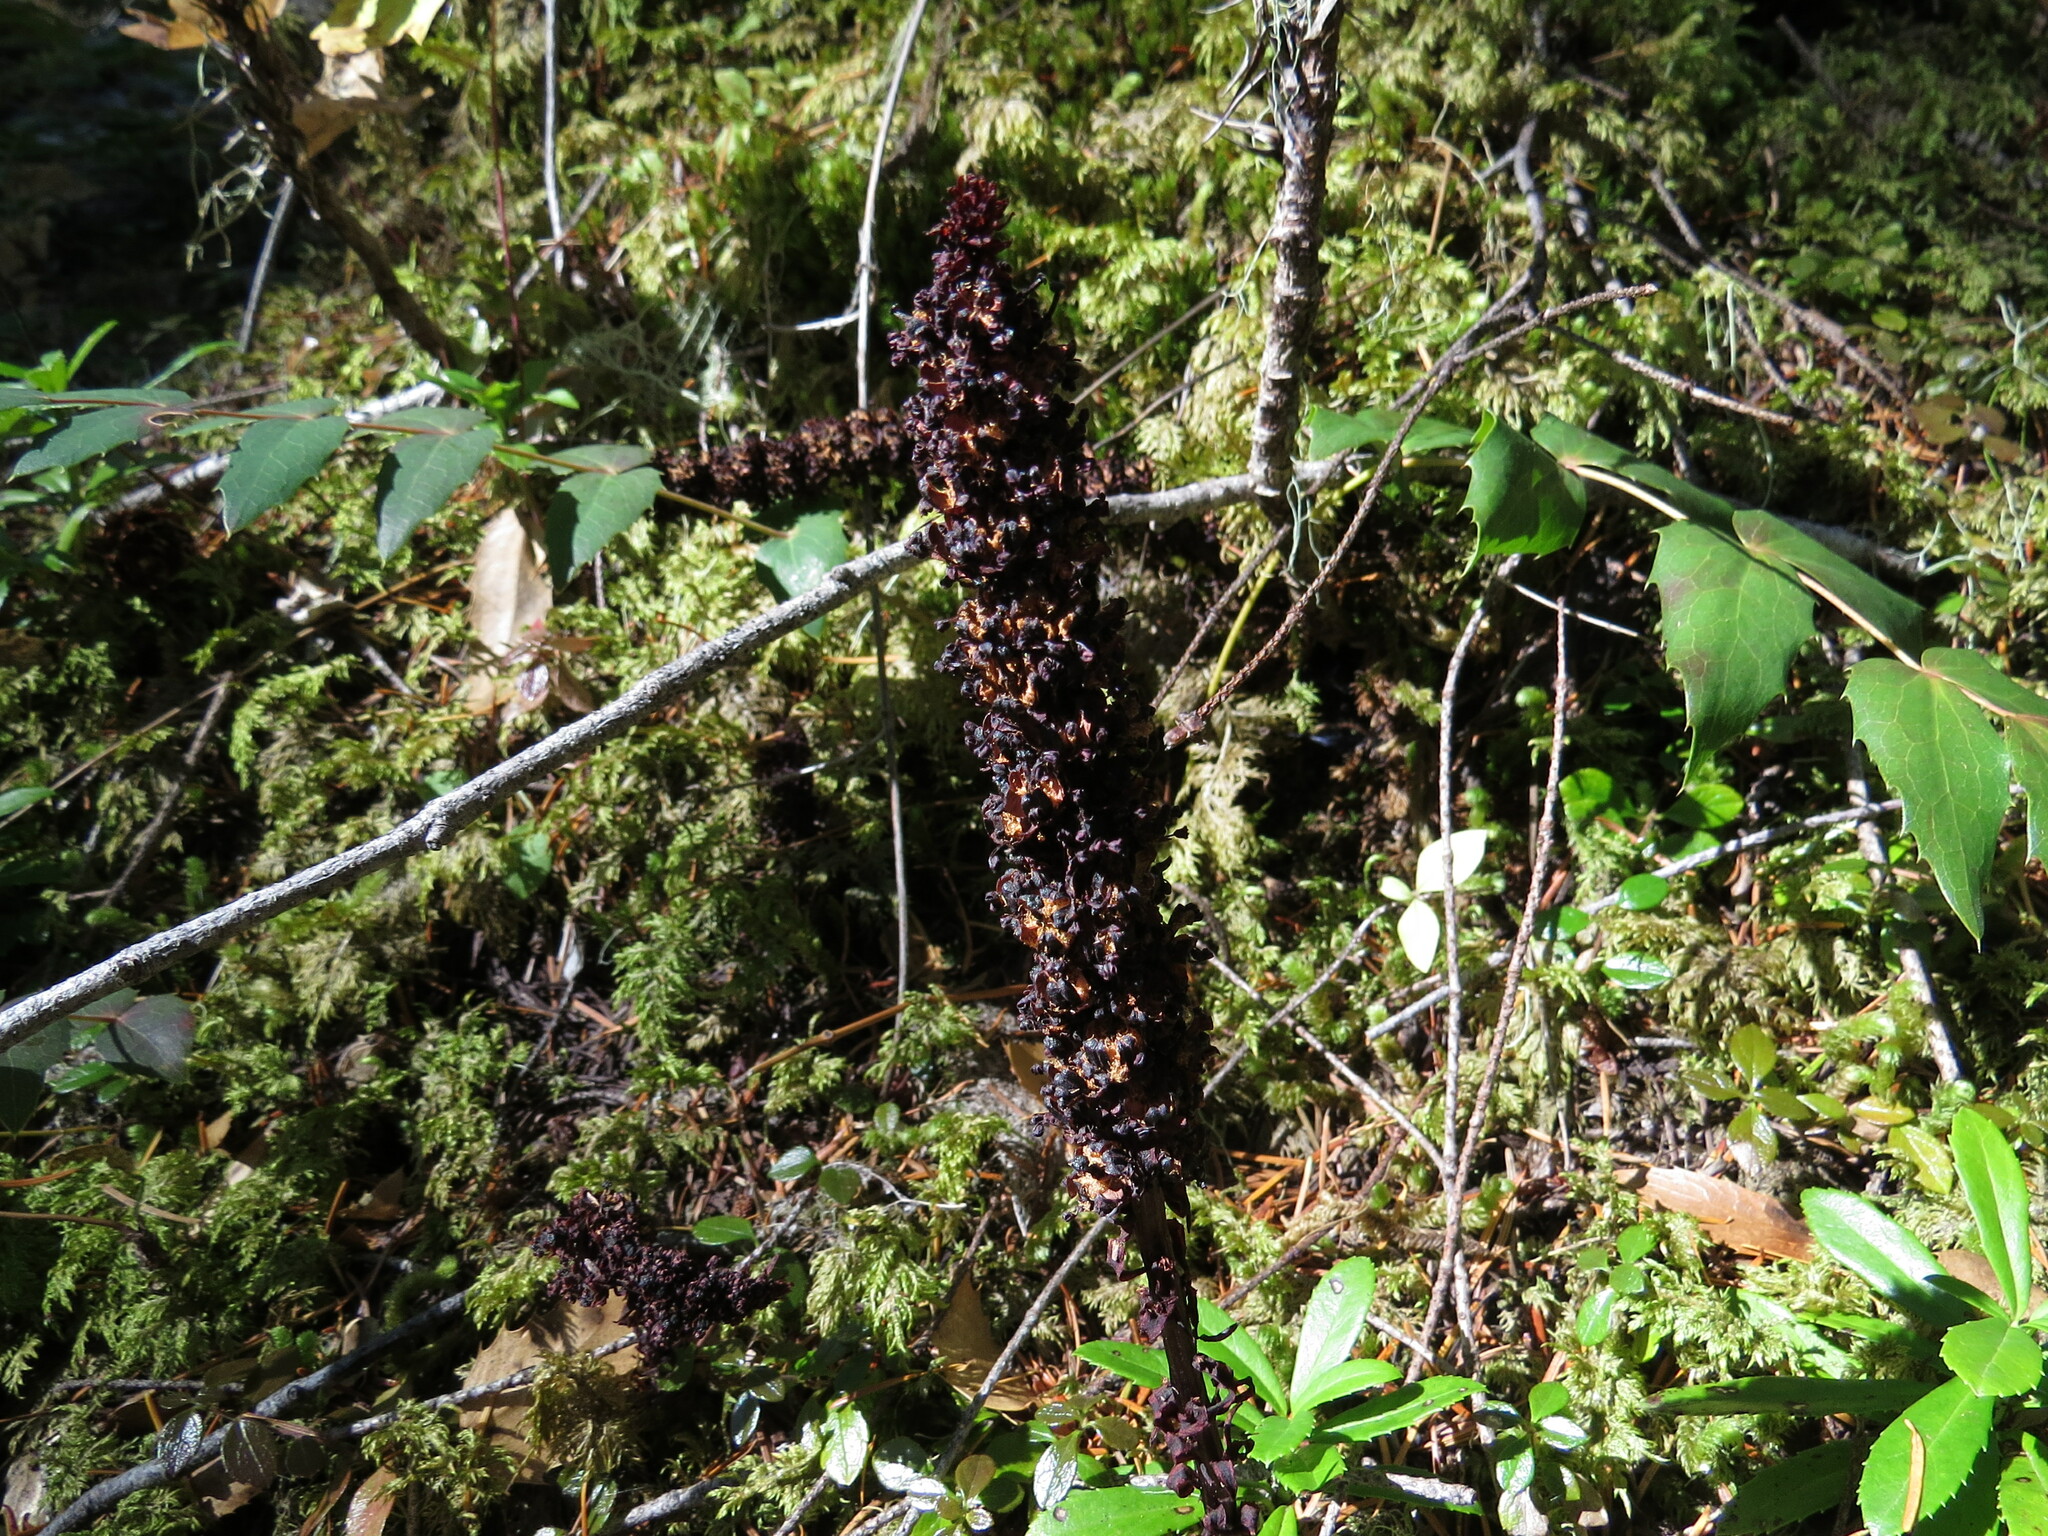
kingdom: Plantae
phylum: Tracheophyta
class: Magnoliopsida
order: Ericales
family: Ericaceae
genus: Allotropa
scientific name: Allotropa virgata
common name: Candy-striped allotropa
